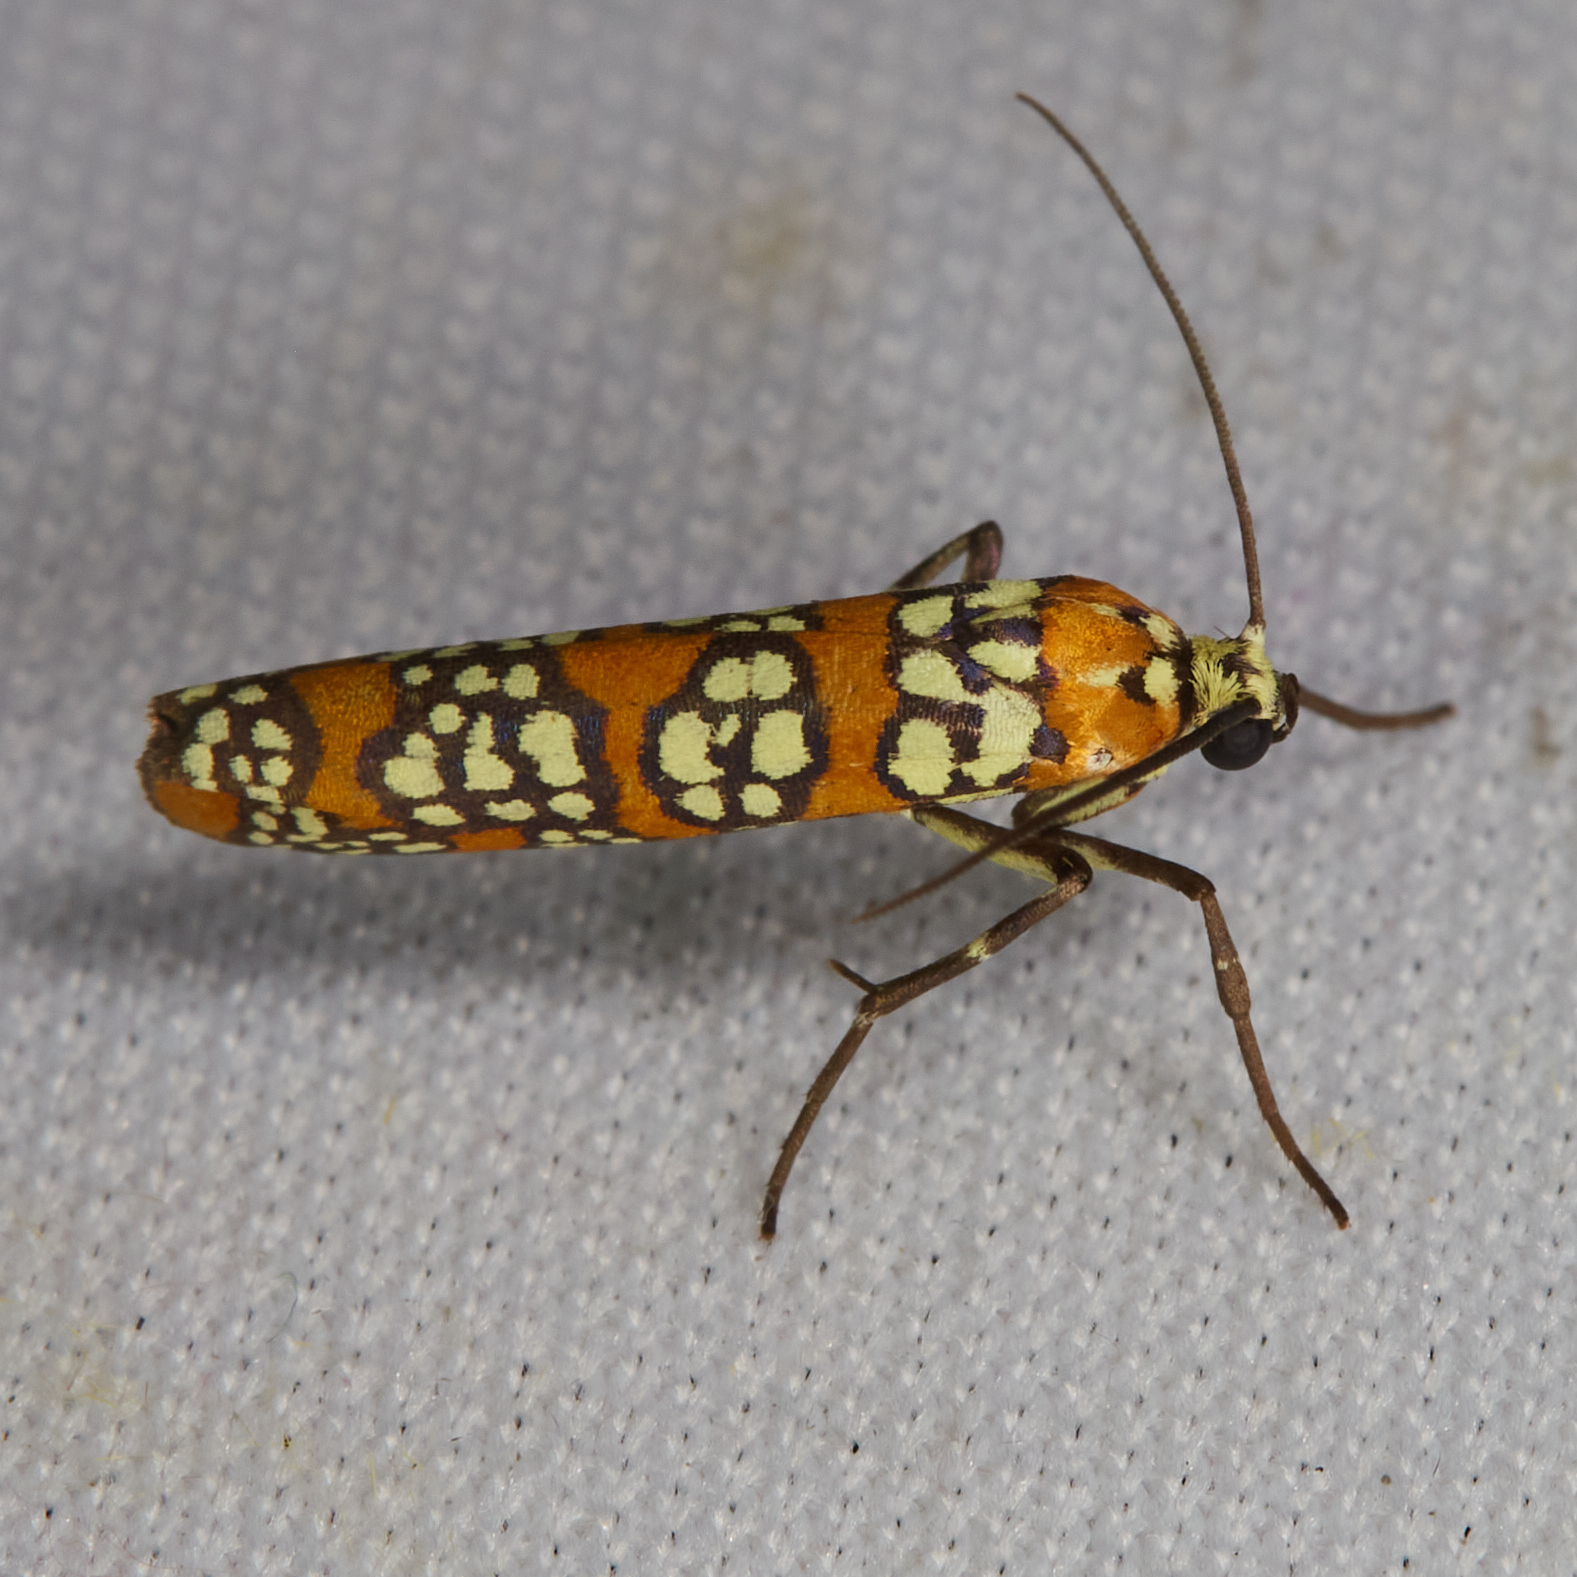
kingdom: Animalia
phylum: Arthropoda
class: Insecta
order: Lepidoptera
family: Attevidae
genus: Atteva
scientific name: Atteva punctella
